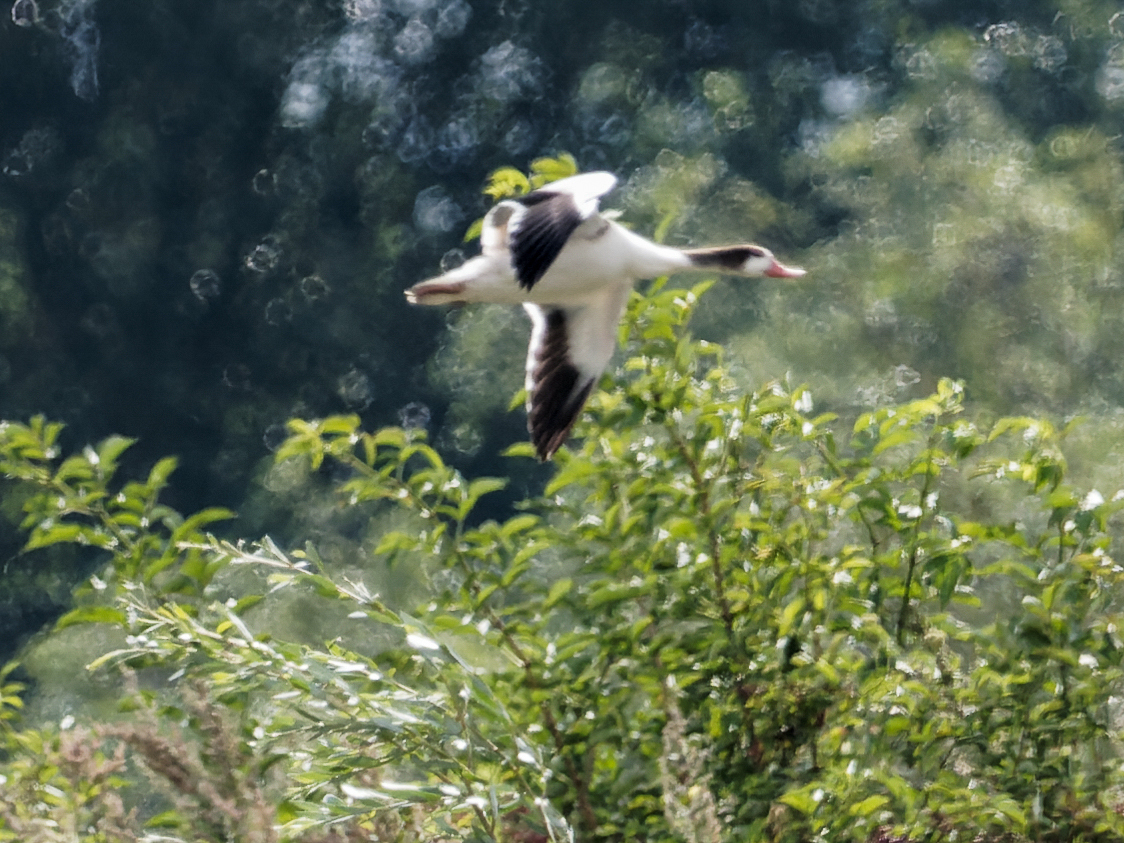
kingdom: Animalia
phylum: Chordata
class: Aves
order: Anseriformes
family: Anatidae
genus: Tadorna
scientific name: Tadorna tadorna
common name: Common shelduck
